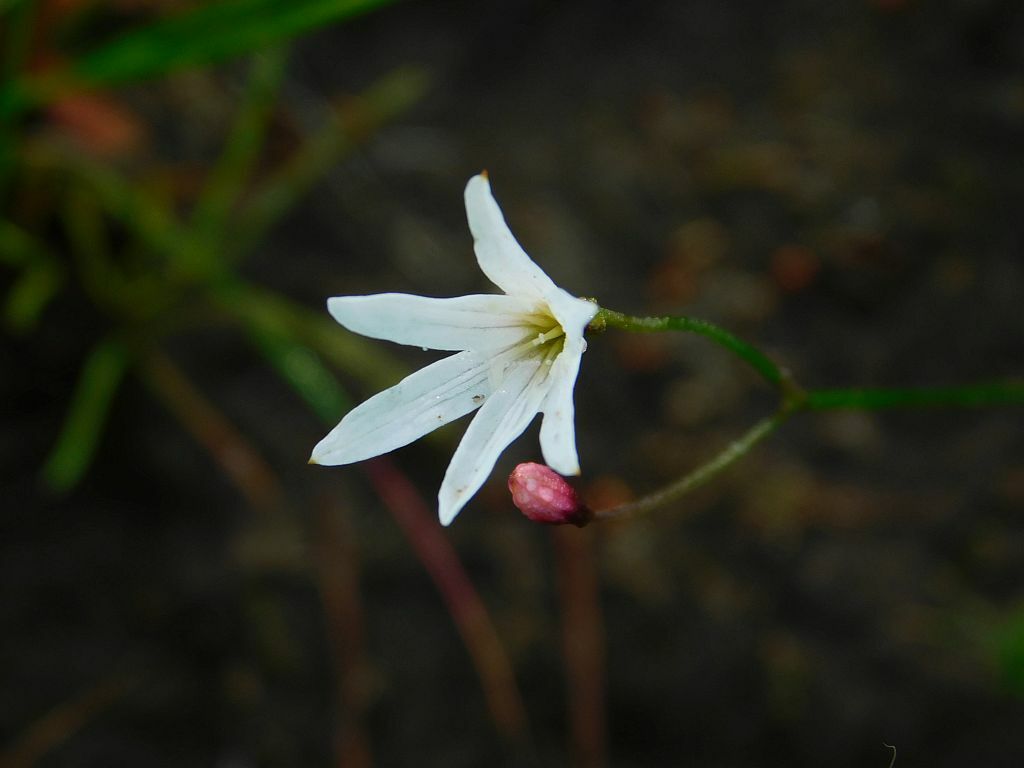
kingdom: Plantae
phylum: Tracheophyta
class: Liliopsida
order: Asparagales
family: Amaryllidaceae
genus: Strumaria
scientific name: Strumaria spiralis
